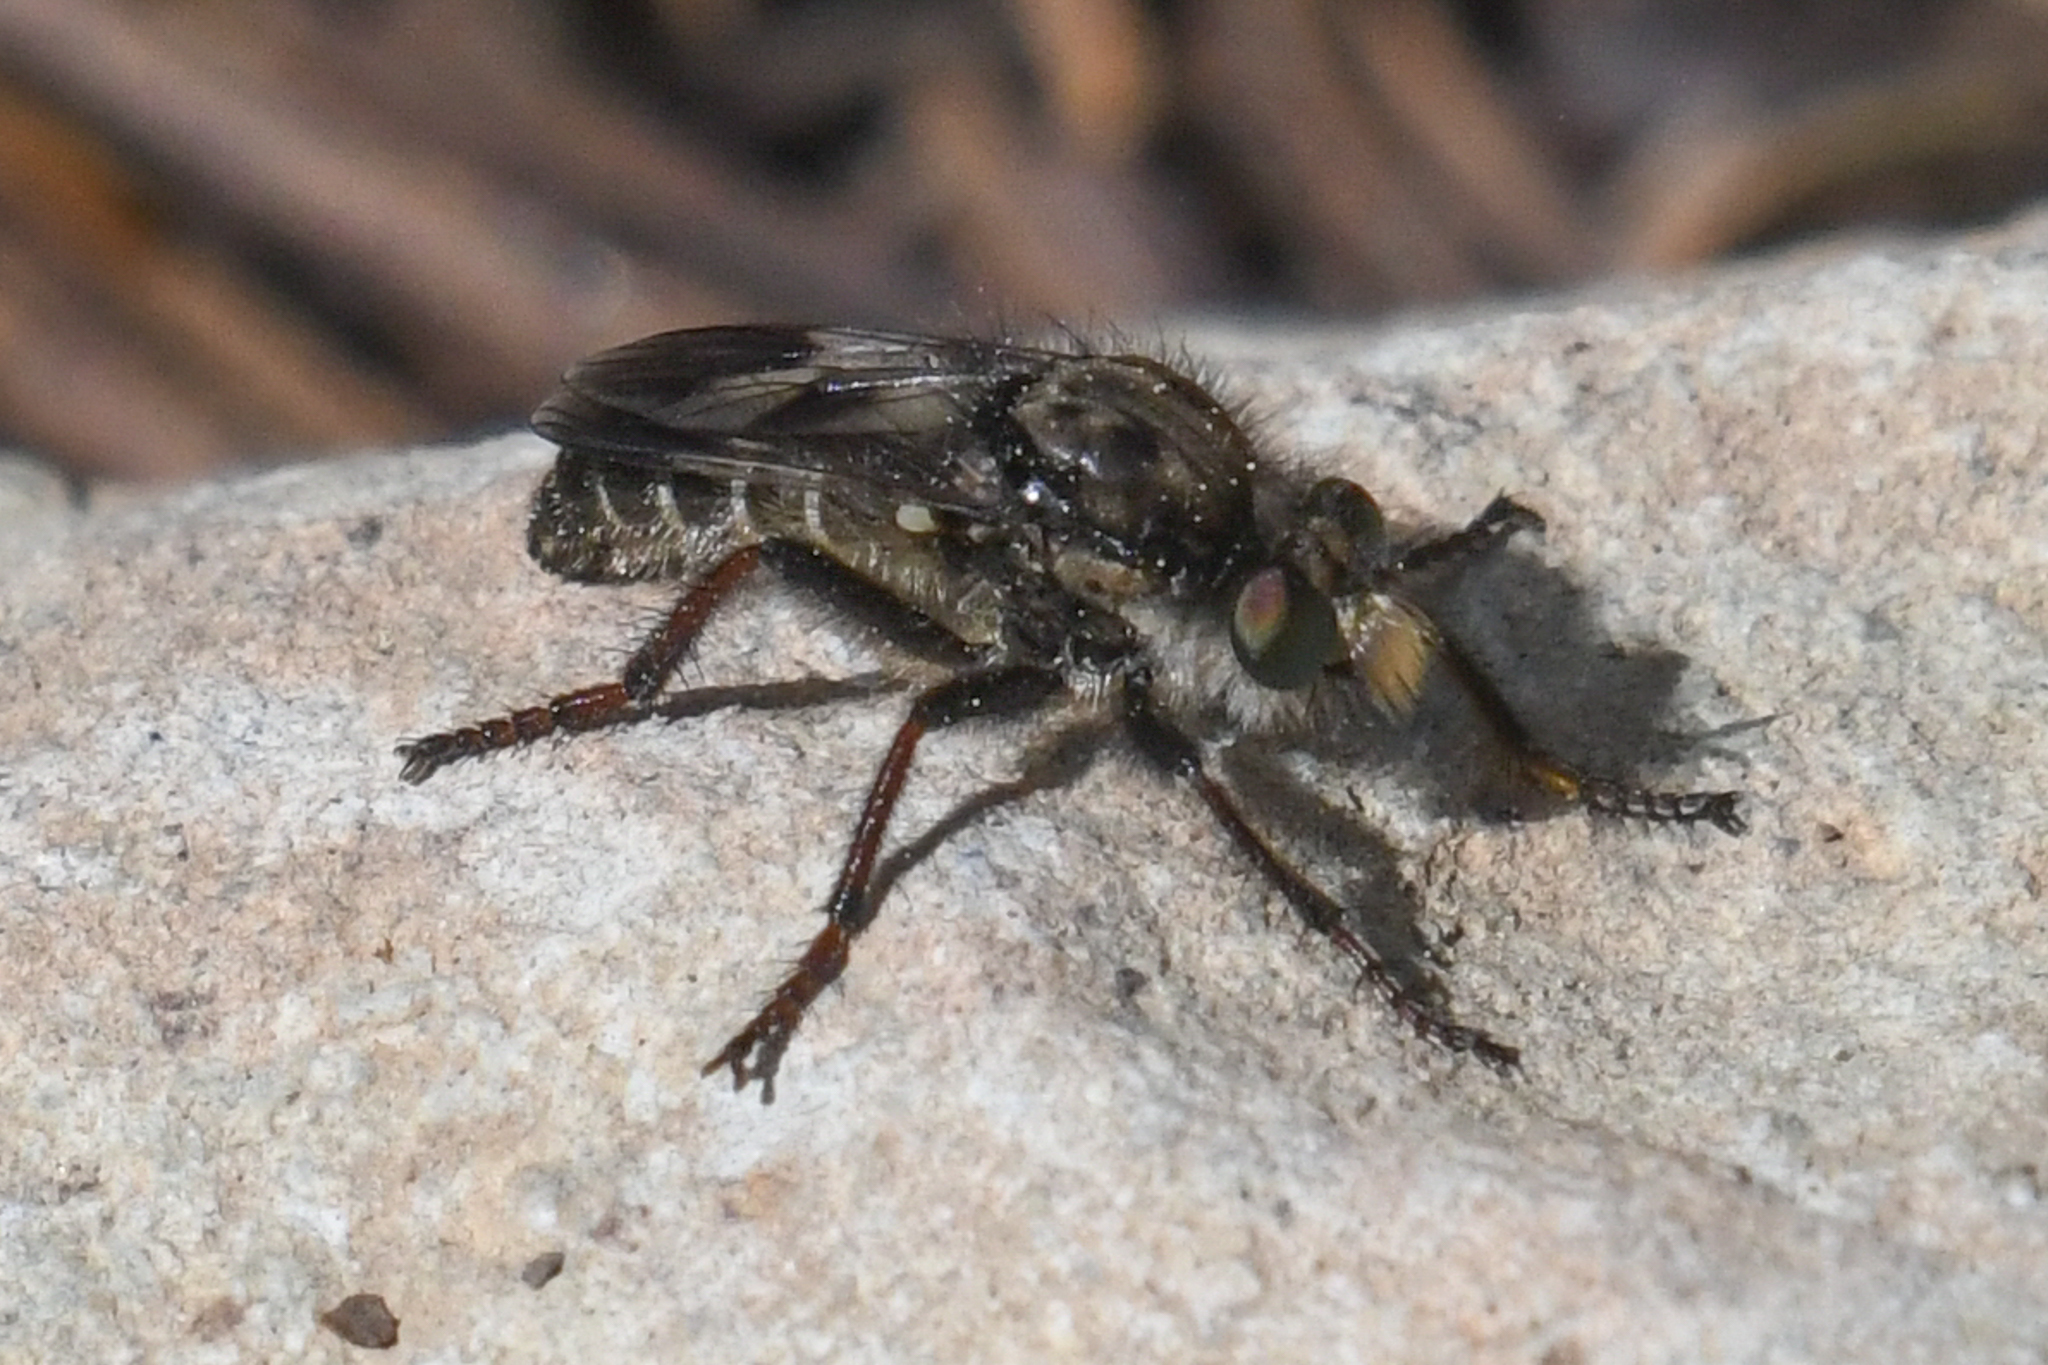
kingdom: Animalia
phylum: Arthropoda
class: Insecta
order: Diptera
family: Asilidae
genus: Cyrtopogon
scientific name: Cyrtopogon bimaculus
